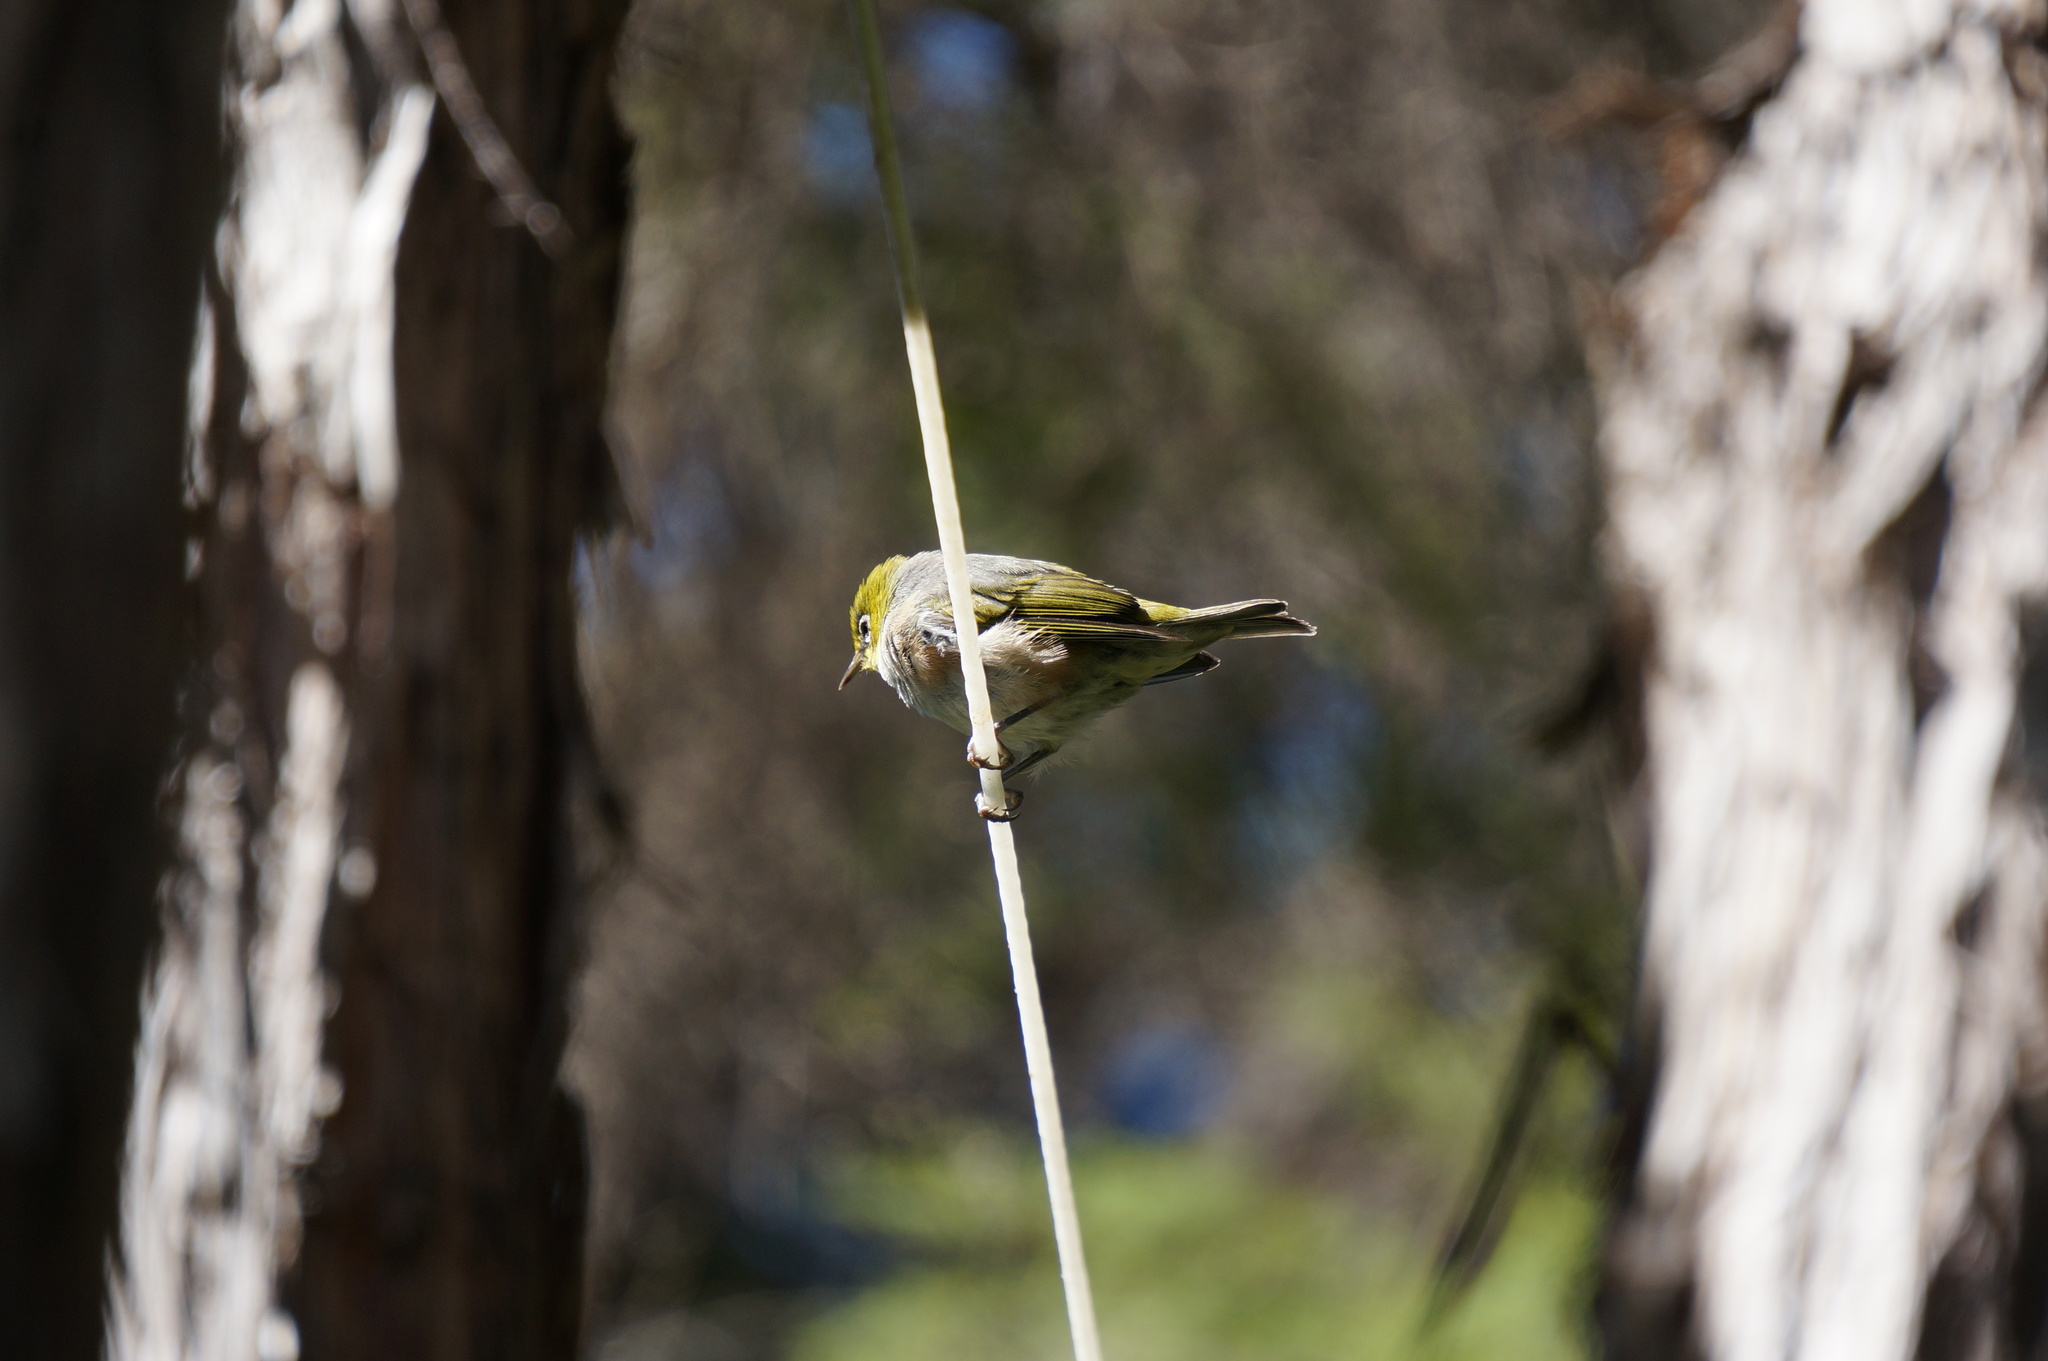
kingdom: Animalia
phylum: Chordata
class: Aves
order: Passeriformes
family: Zosteropidae
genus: Zosterops
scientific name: Zosterops lateralis
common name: Silvereye
